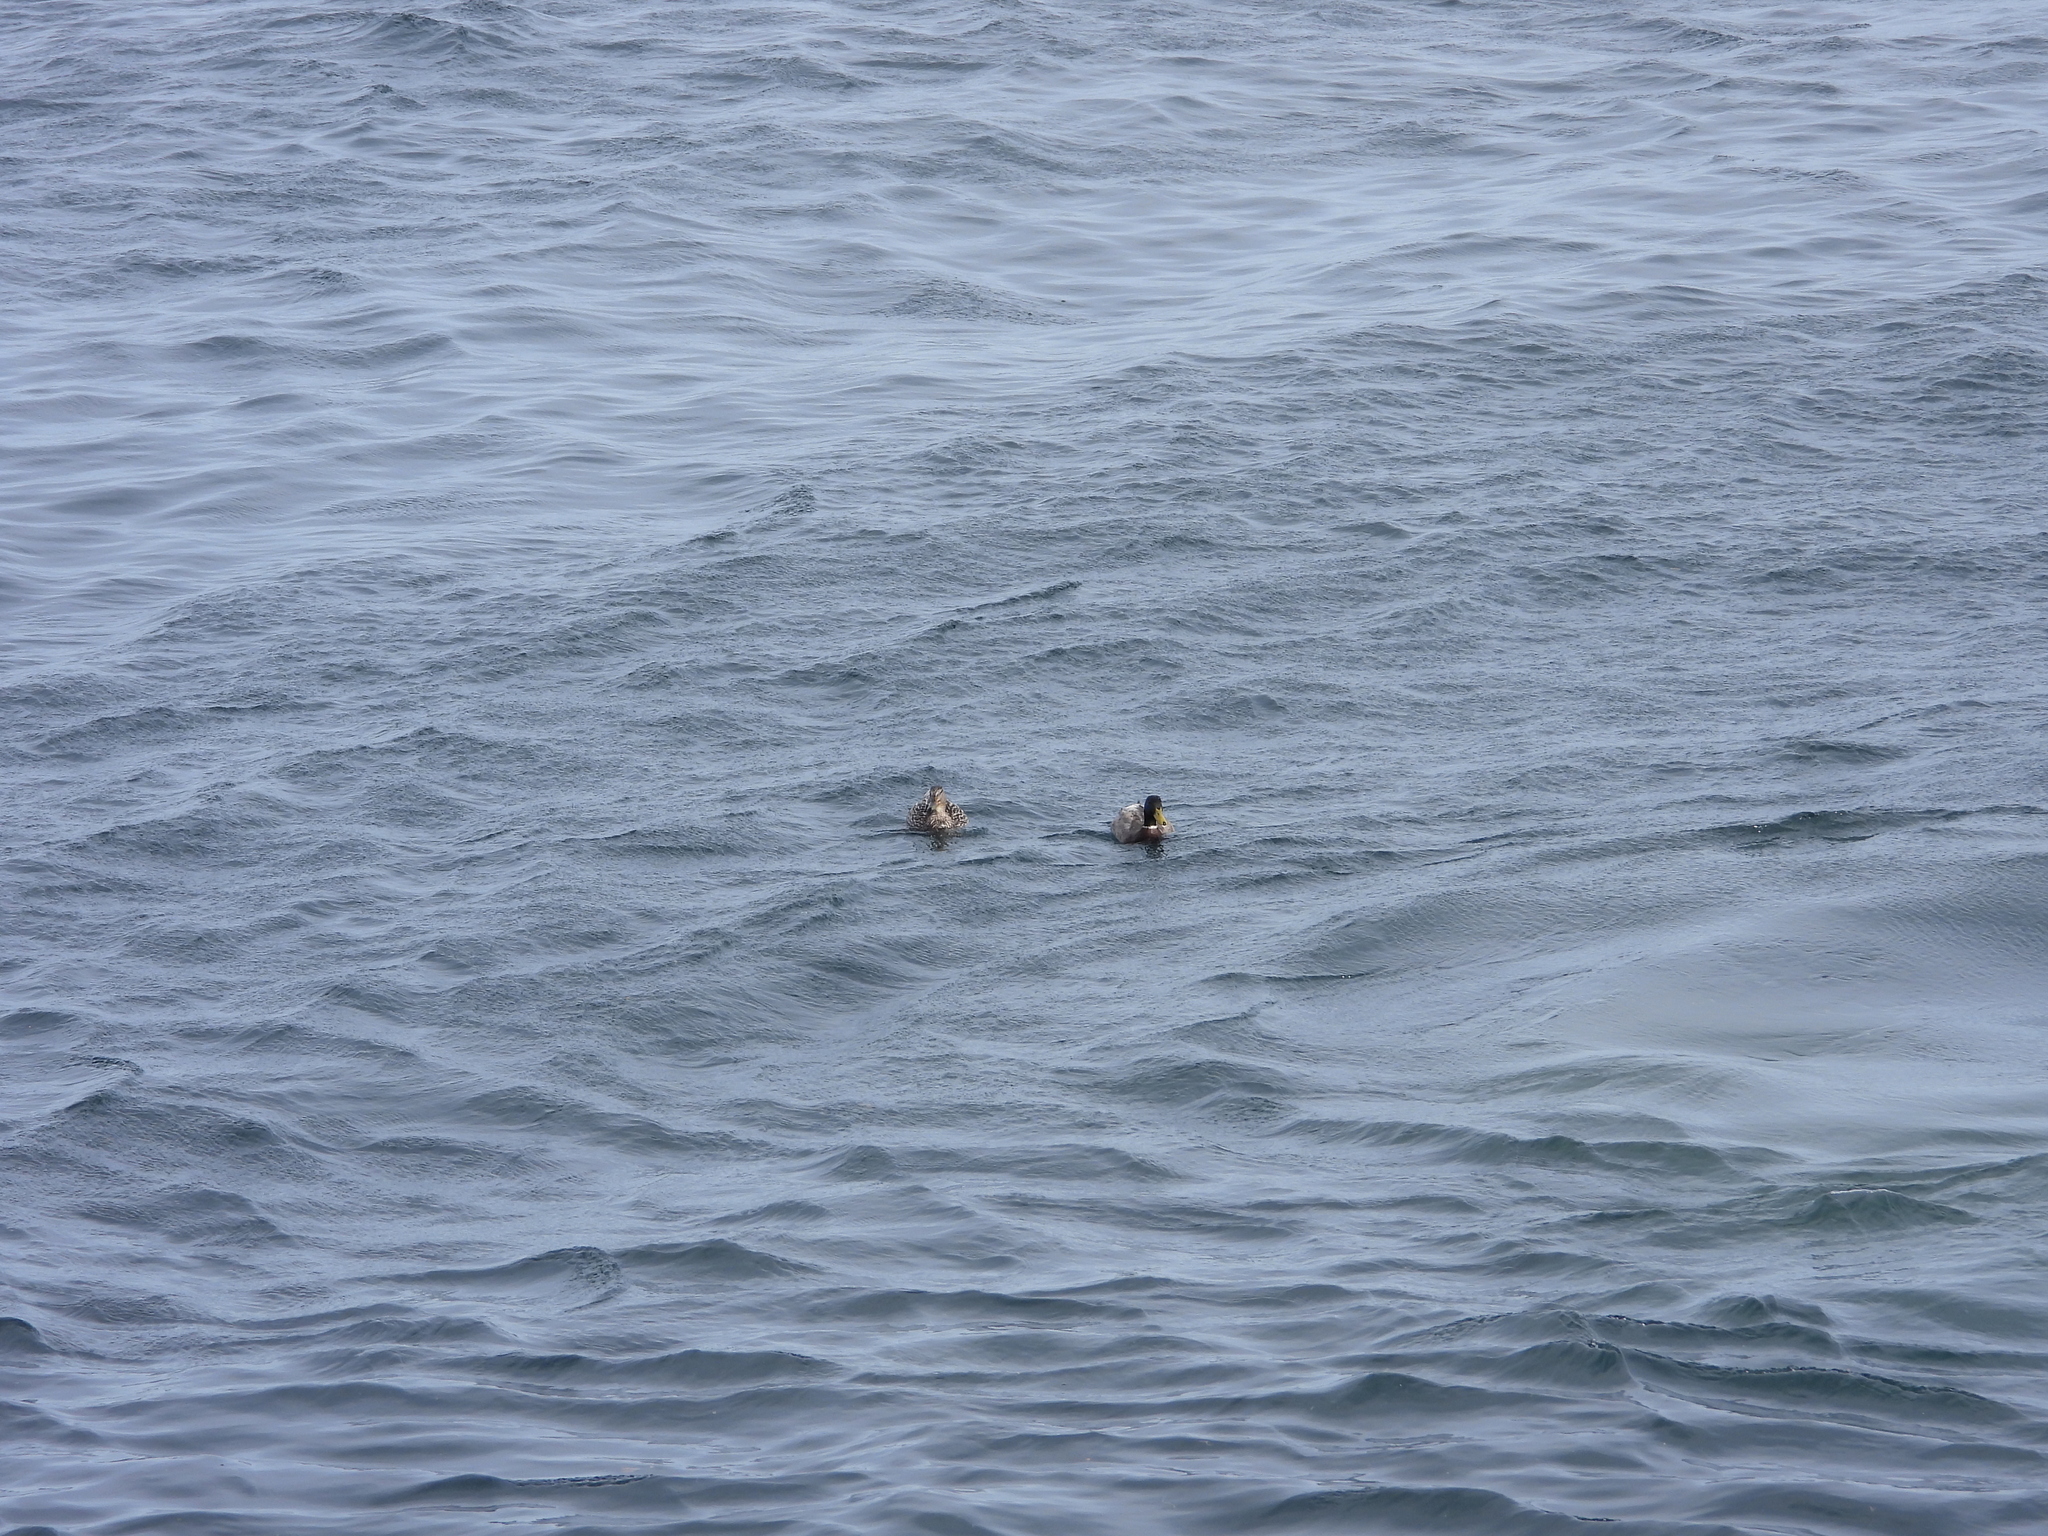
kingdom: Animalia
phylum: Chordata
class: Aves
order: Anseriformes
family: Anatidae
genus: Anas
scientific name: Anas platyrhynchos
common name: Mallard
